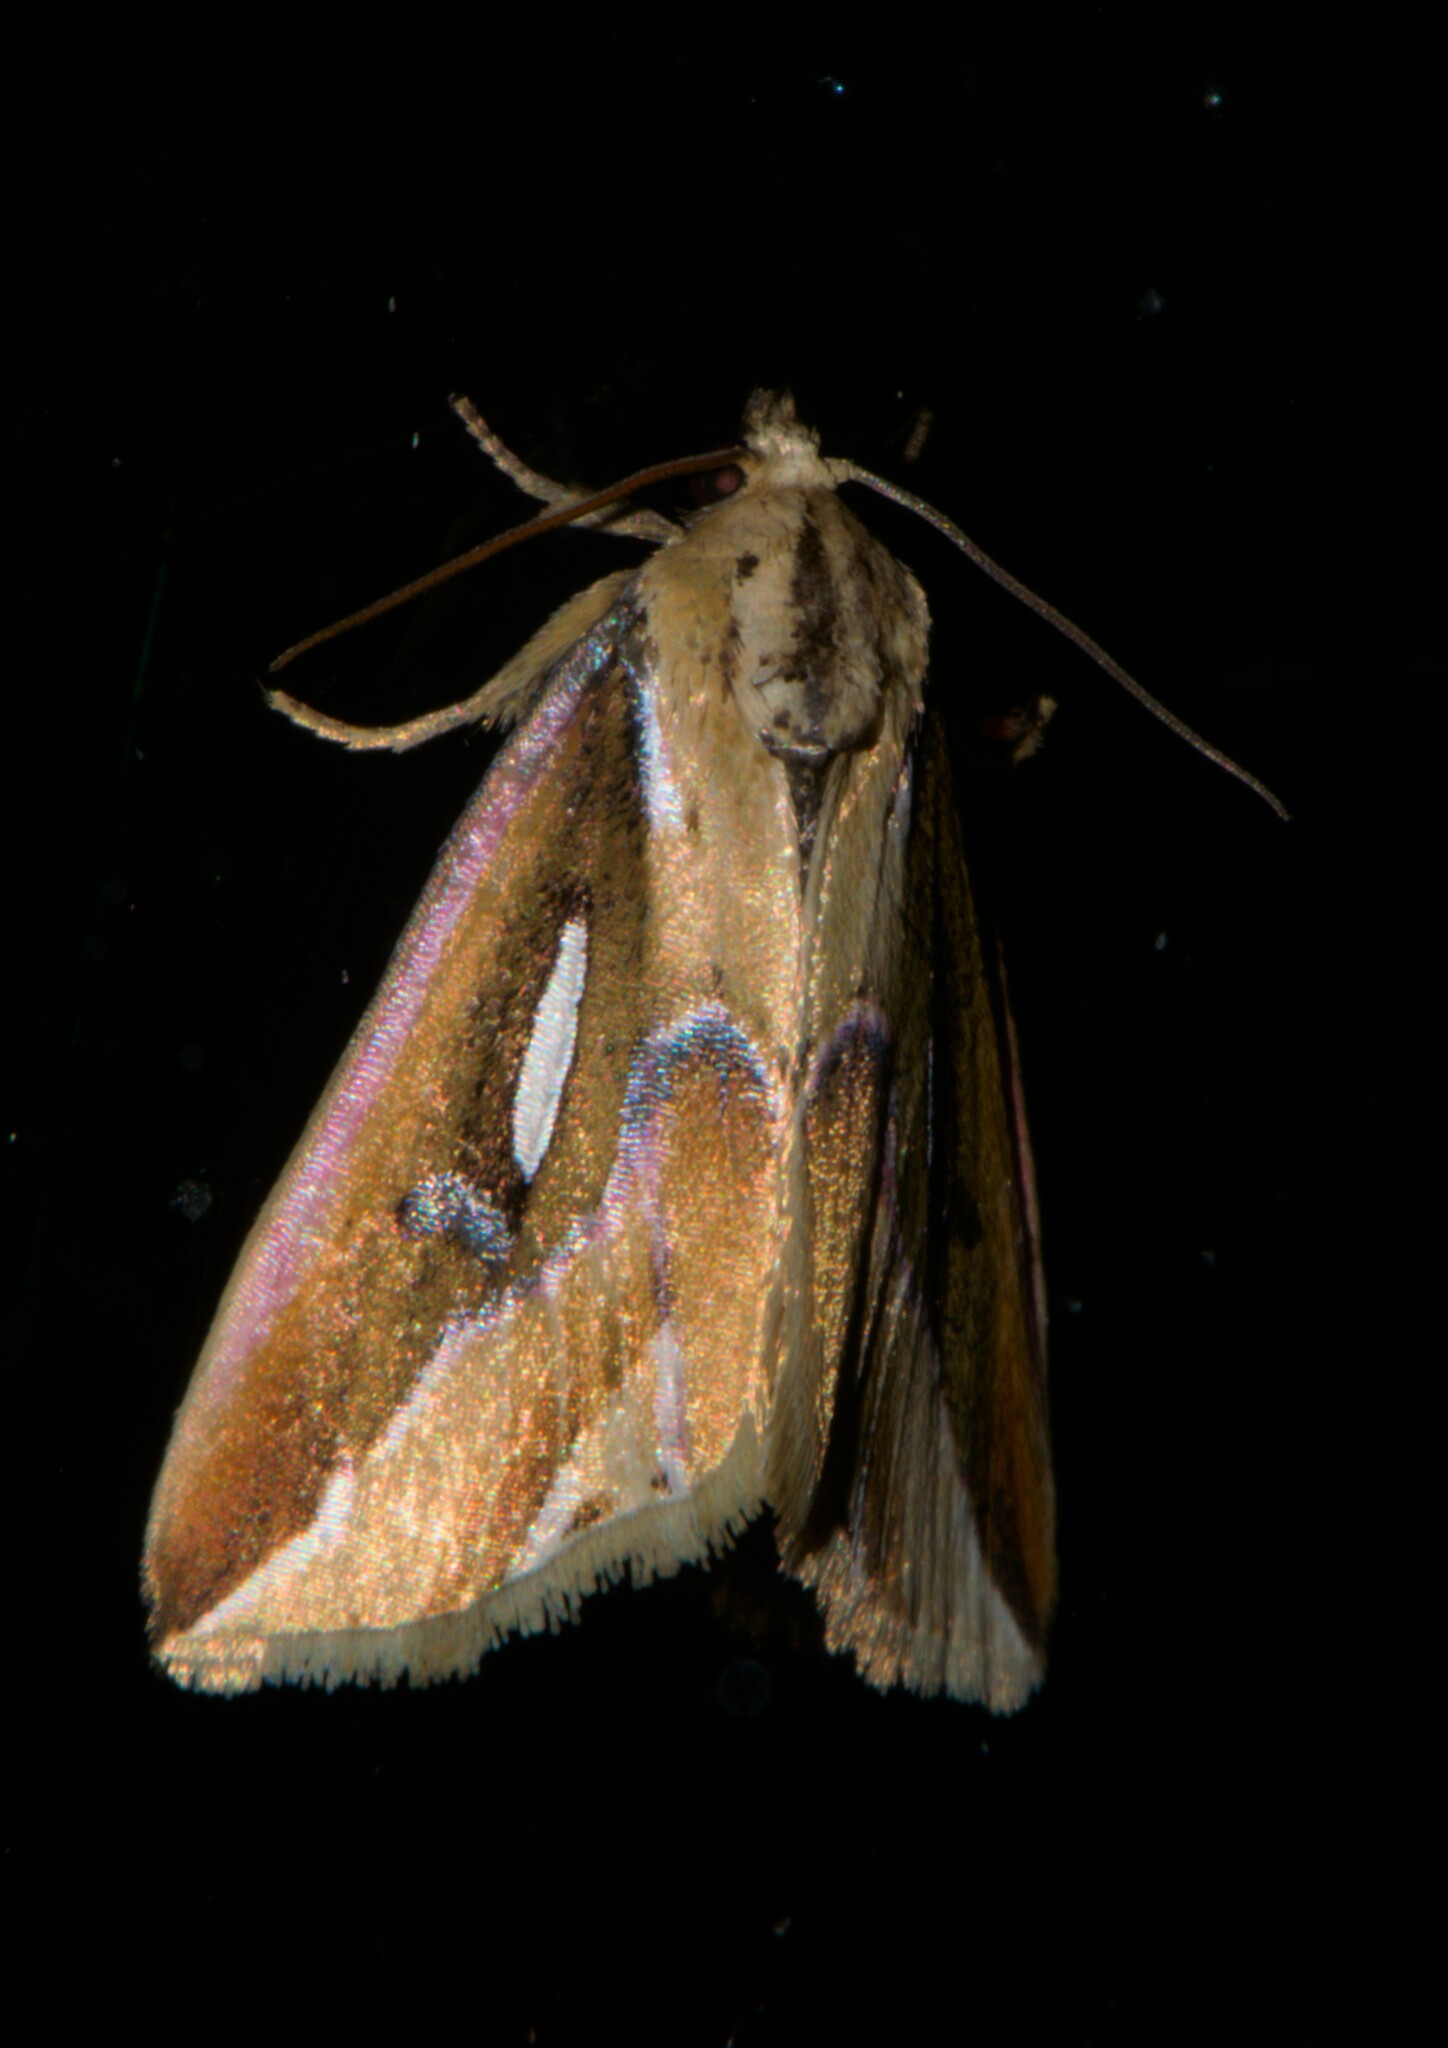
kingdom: Animalia
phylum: Arthropoda
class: Insecta
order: Lepidoptera
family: Noctuidae
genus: Micardia
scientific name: Micardia pulcherrima
